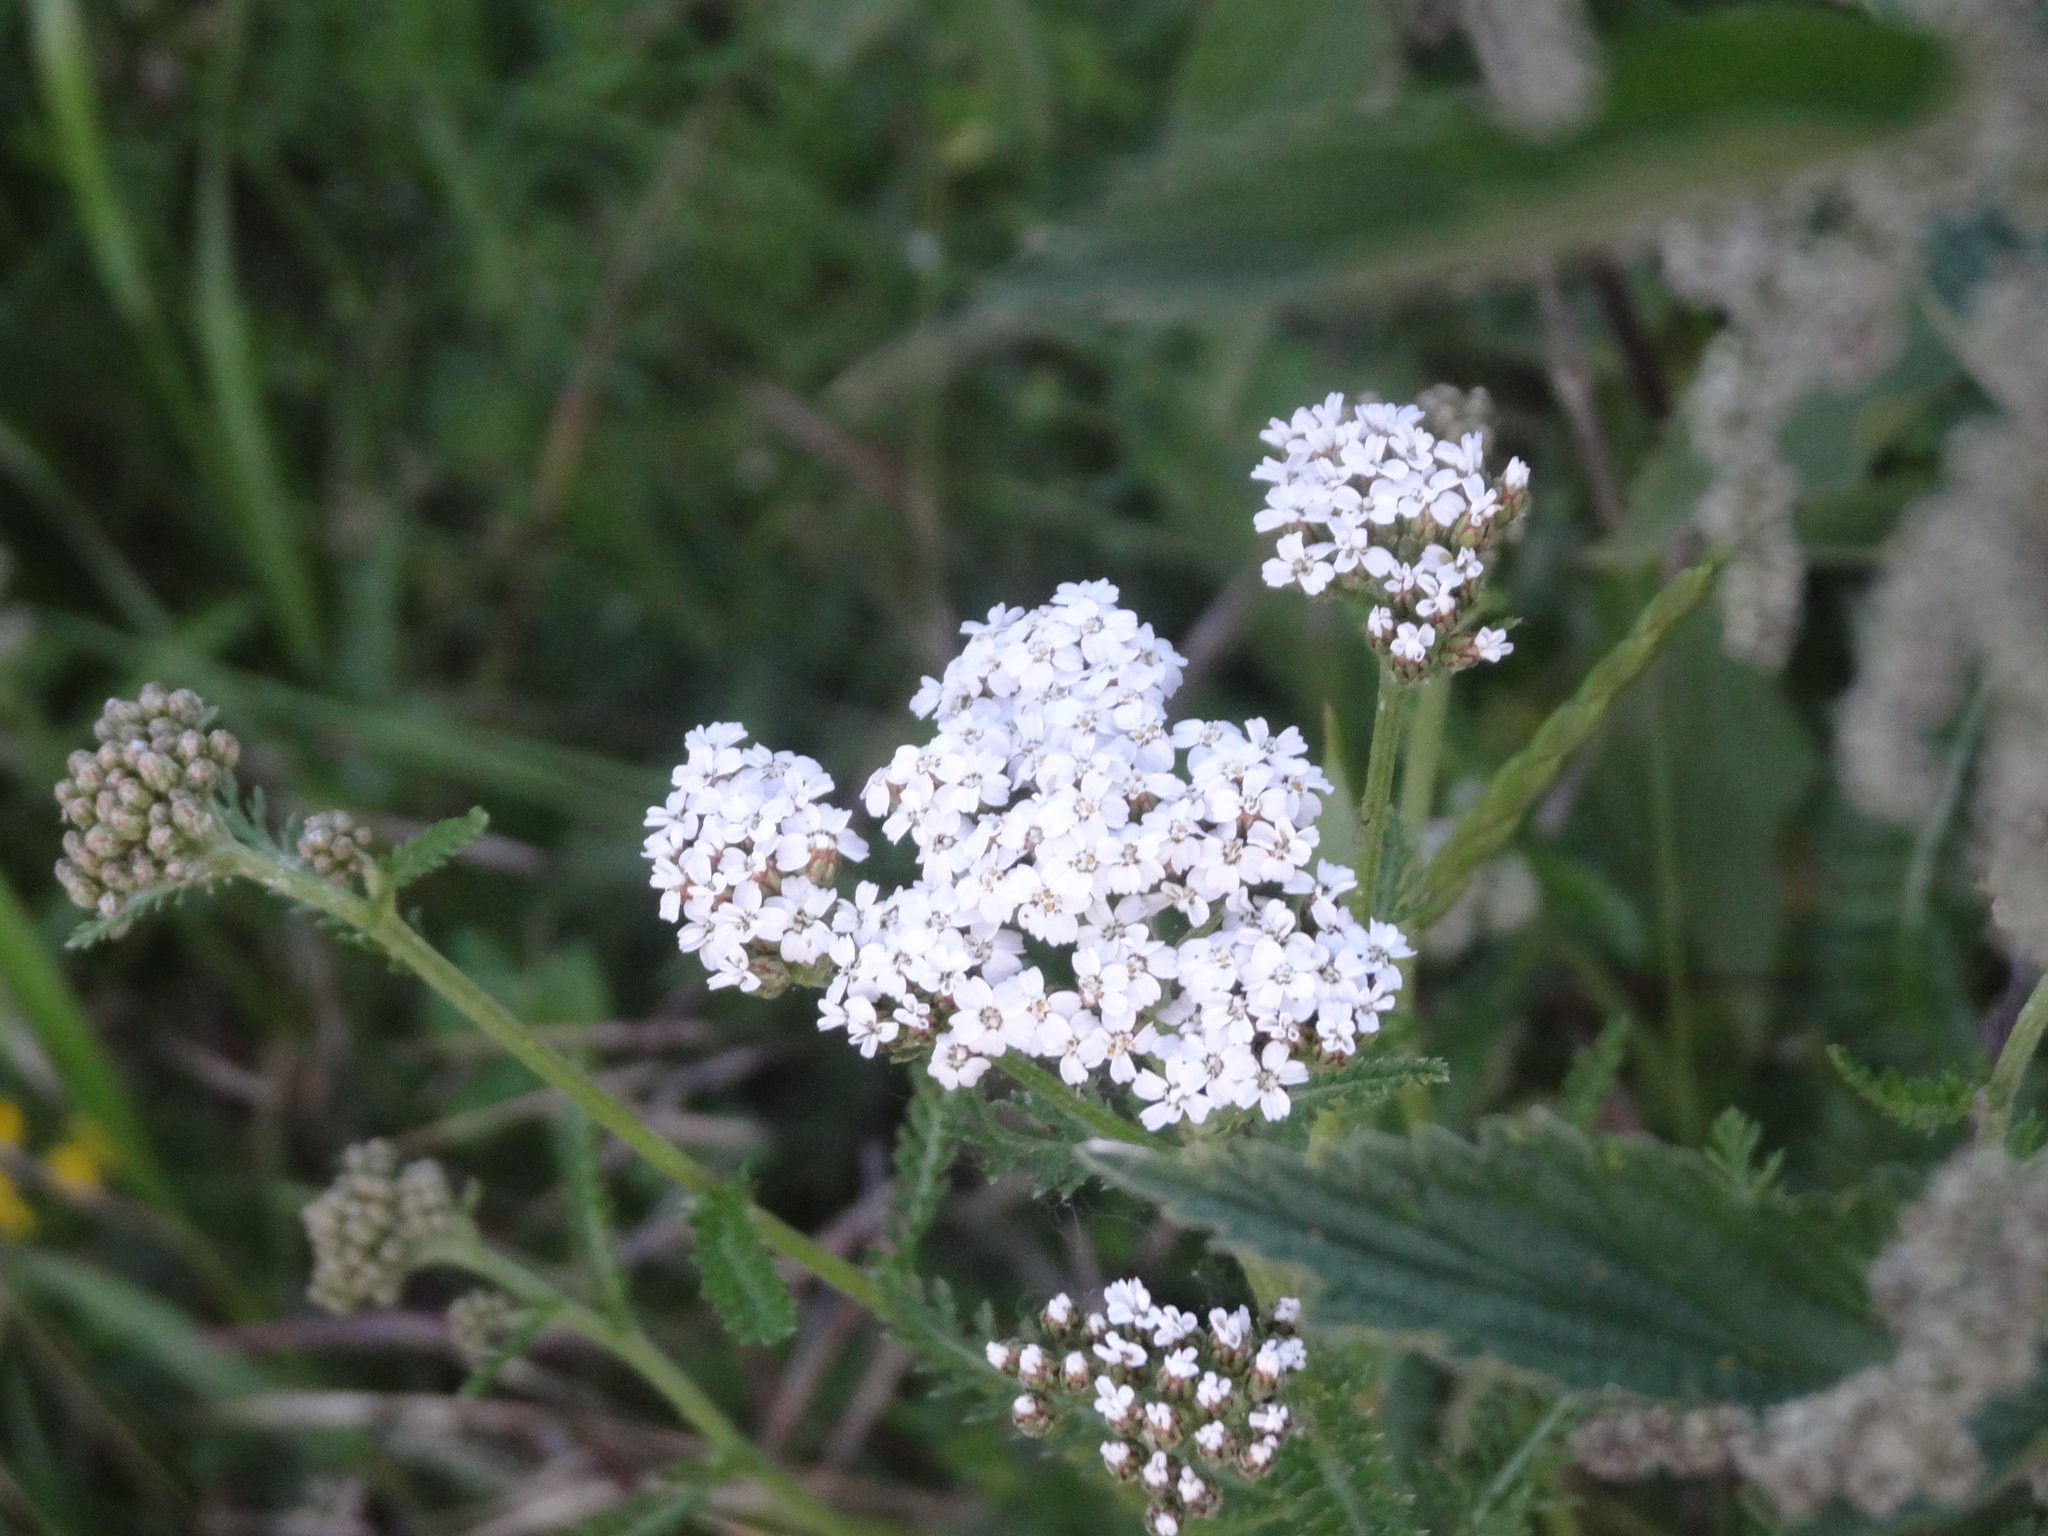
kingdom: Plantae
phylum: Tracheophyta
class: Magnoliopsida
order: Asterales
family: Asteraceae
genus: Achillea
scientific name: Achillea millefolium
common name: Yarrow
